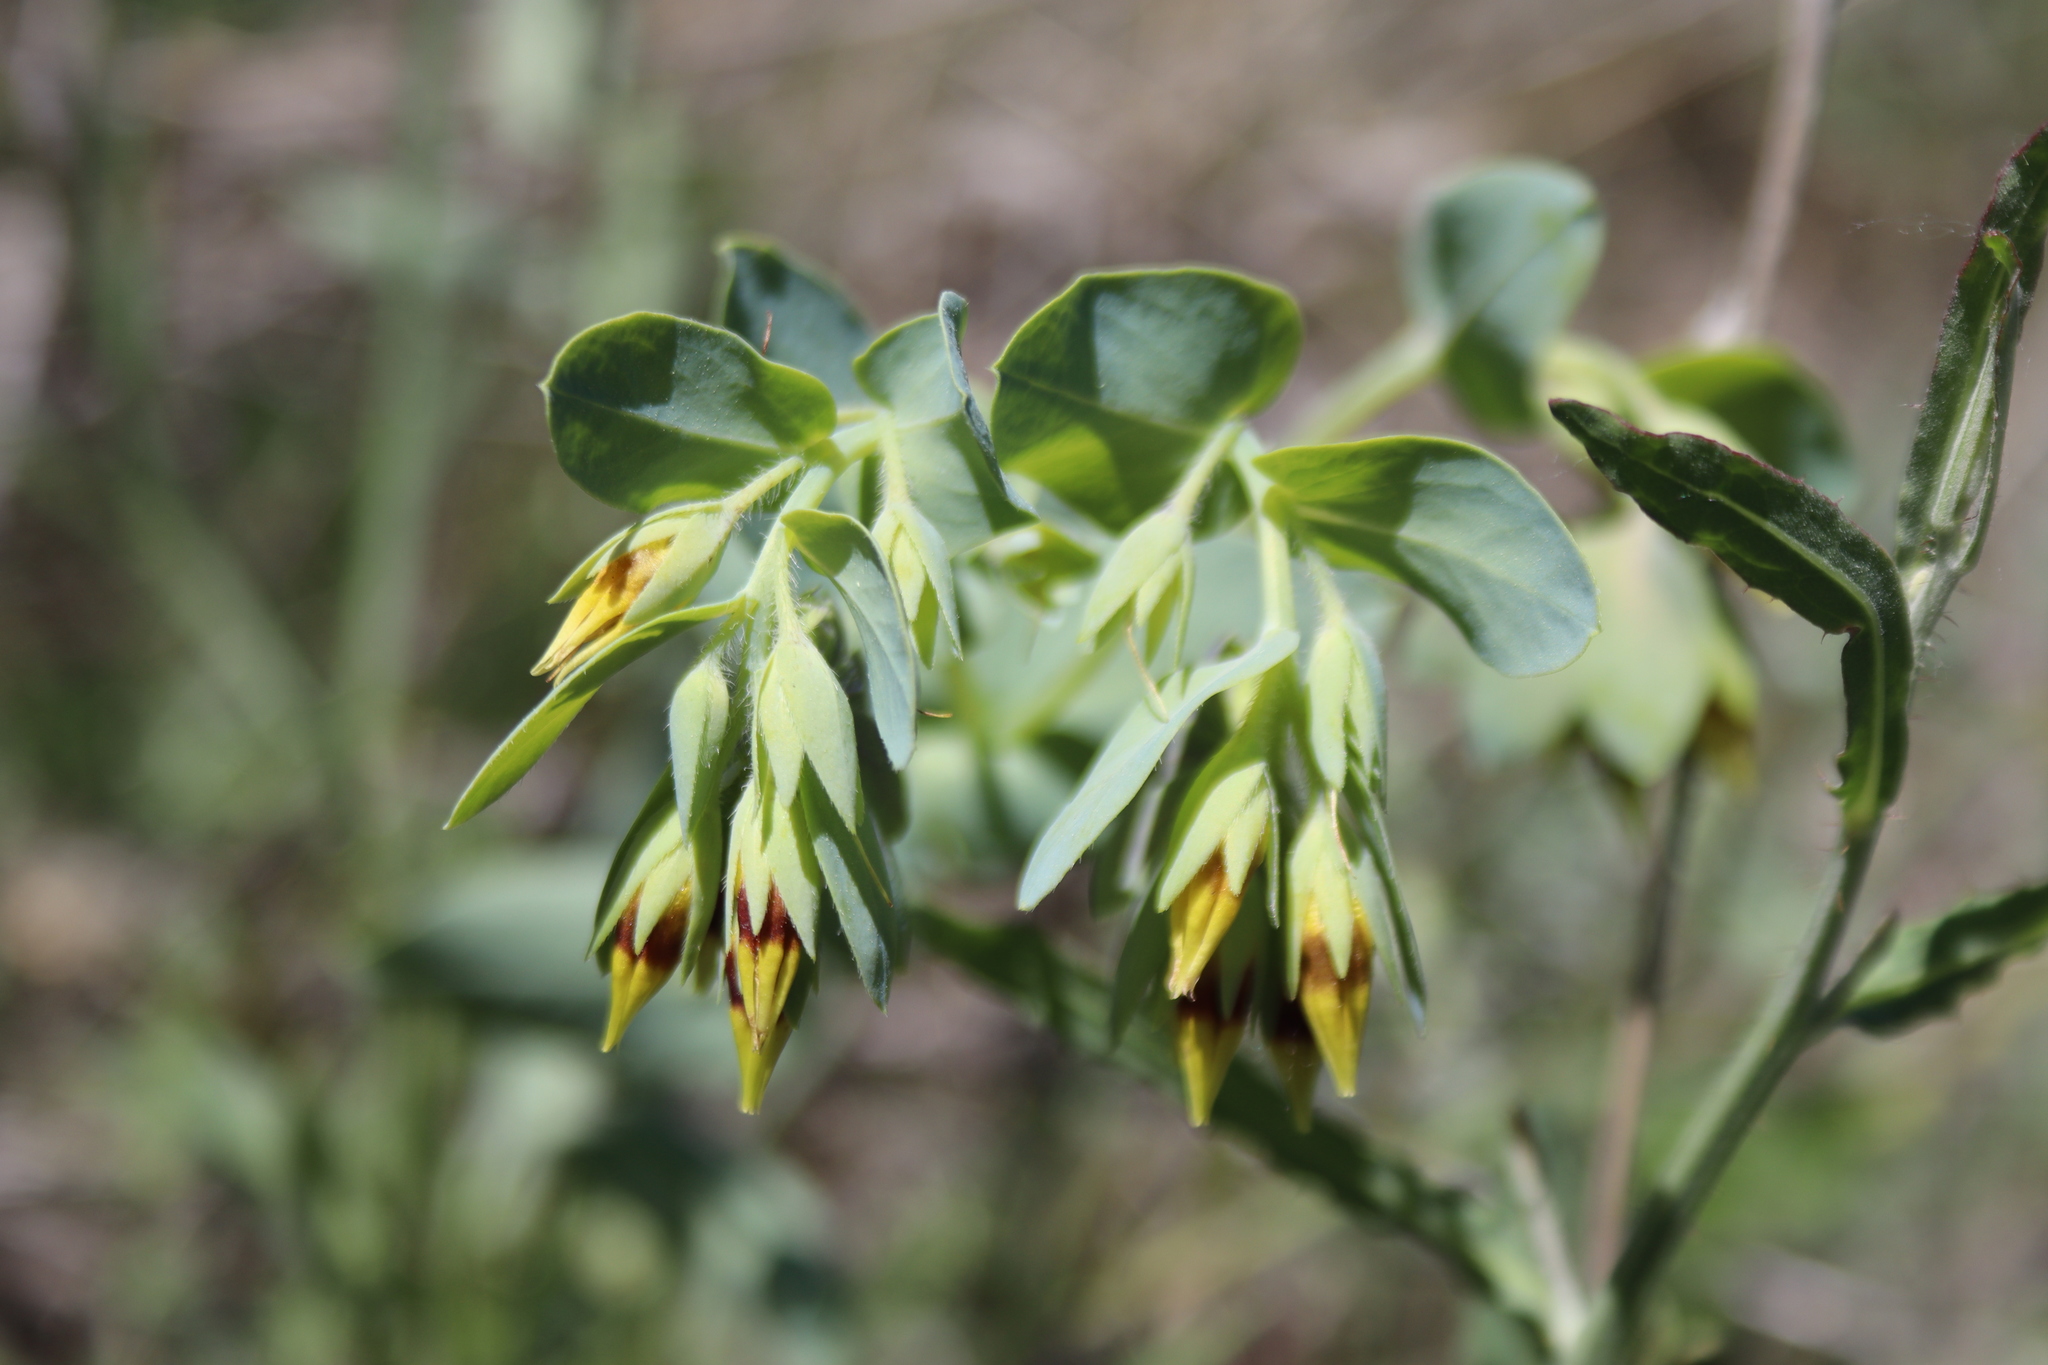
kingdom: Plantae
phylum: Tracheophyta
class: Magnoliopsida
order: Boraginales
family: Boraginaceae
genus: Cerinthe
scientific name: Cerinthe minor
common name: Lesser honeywort
